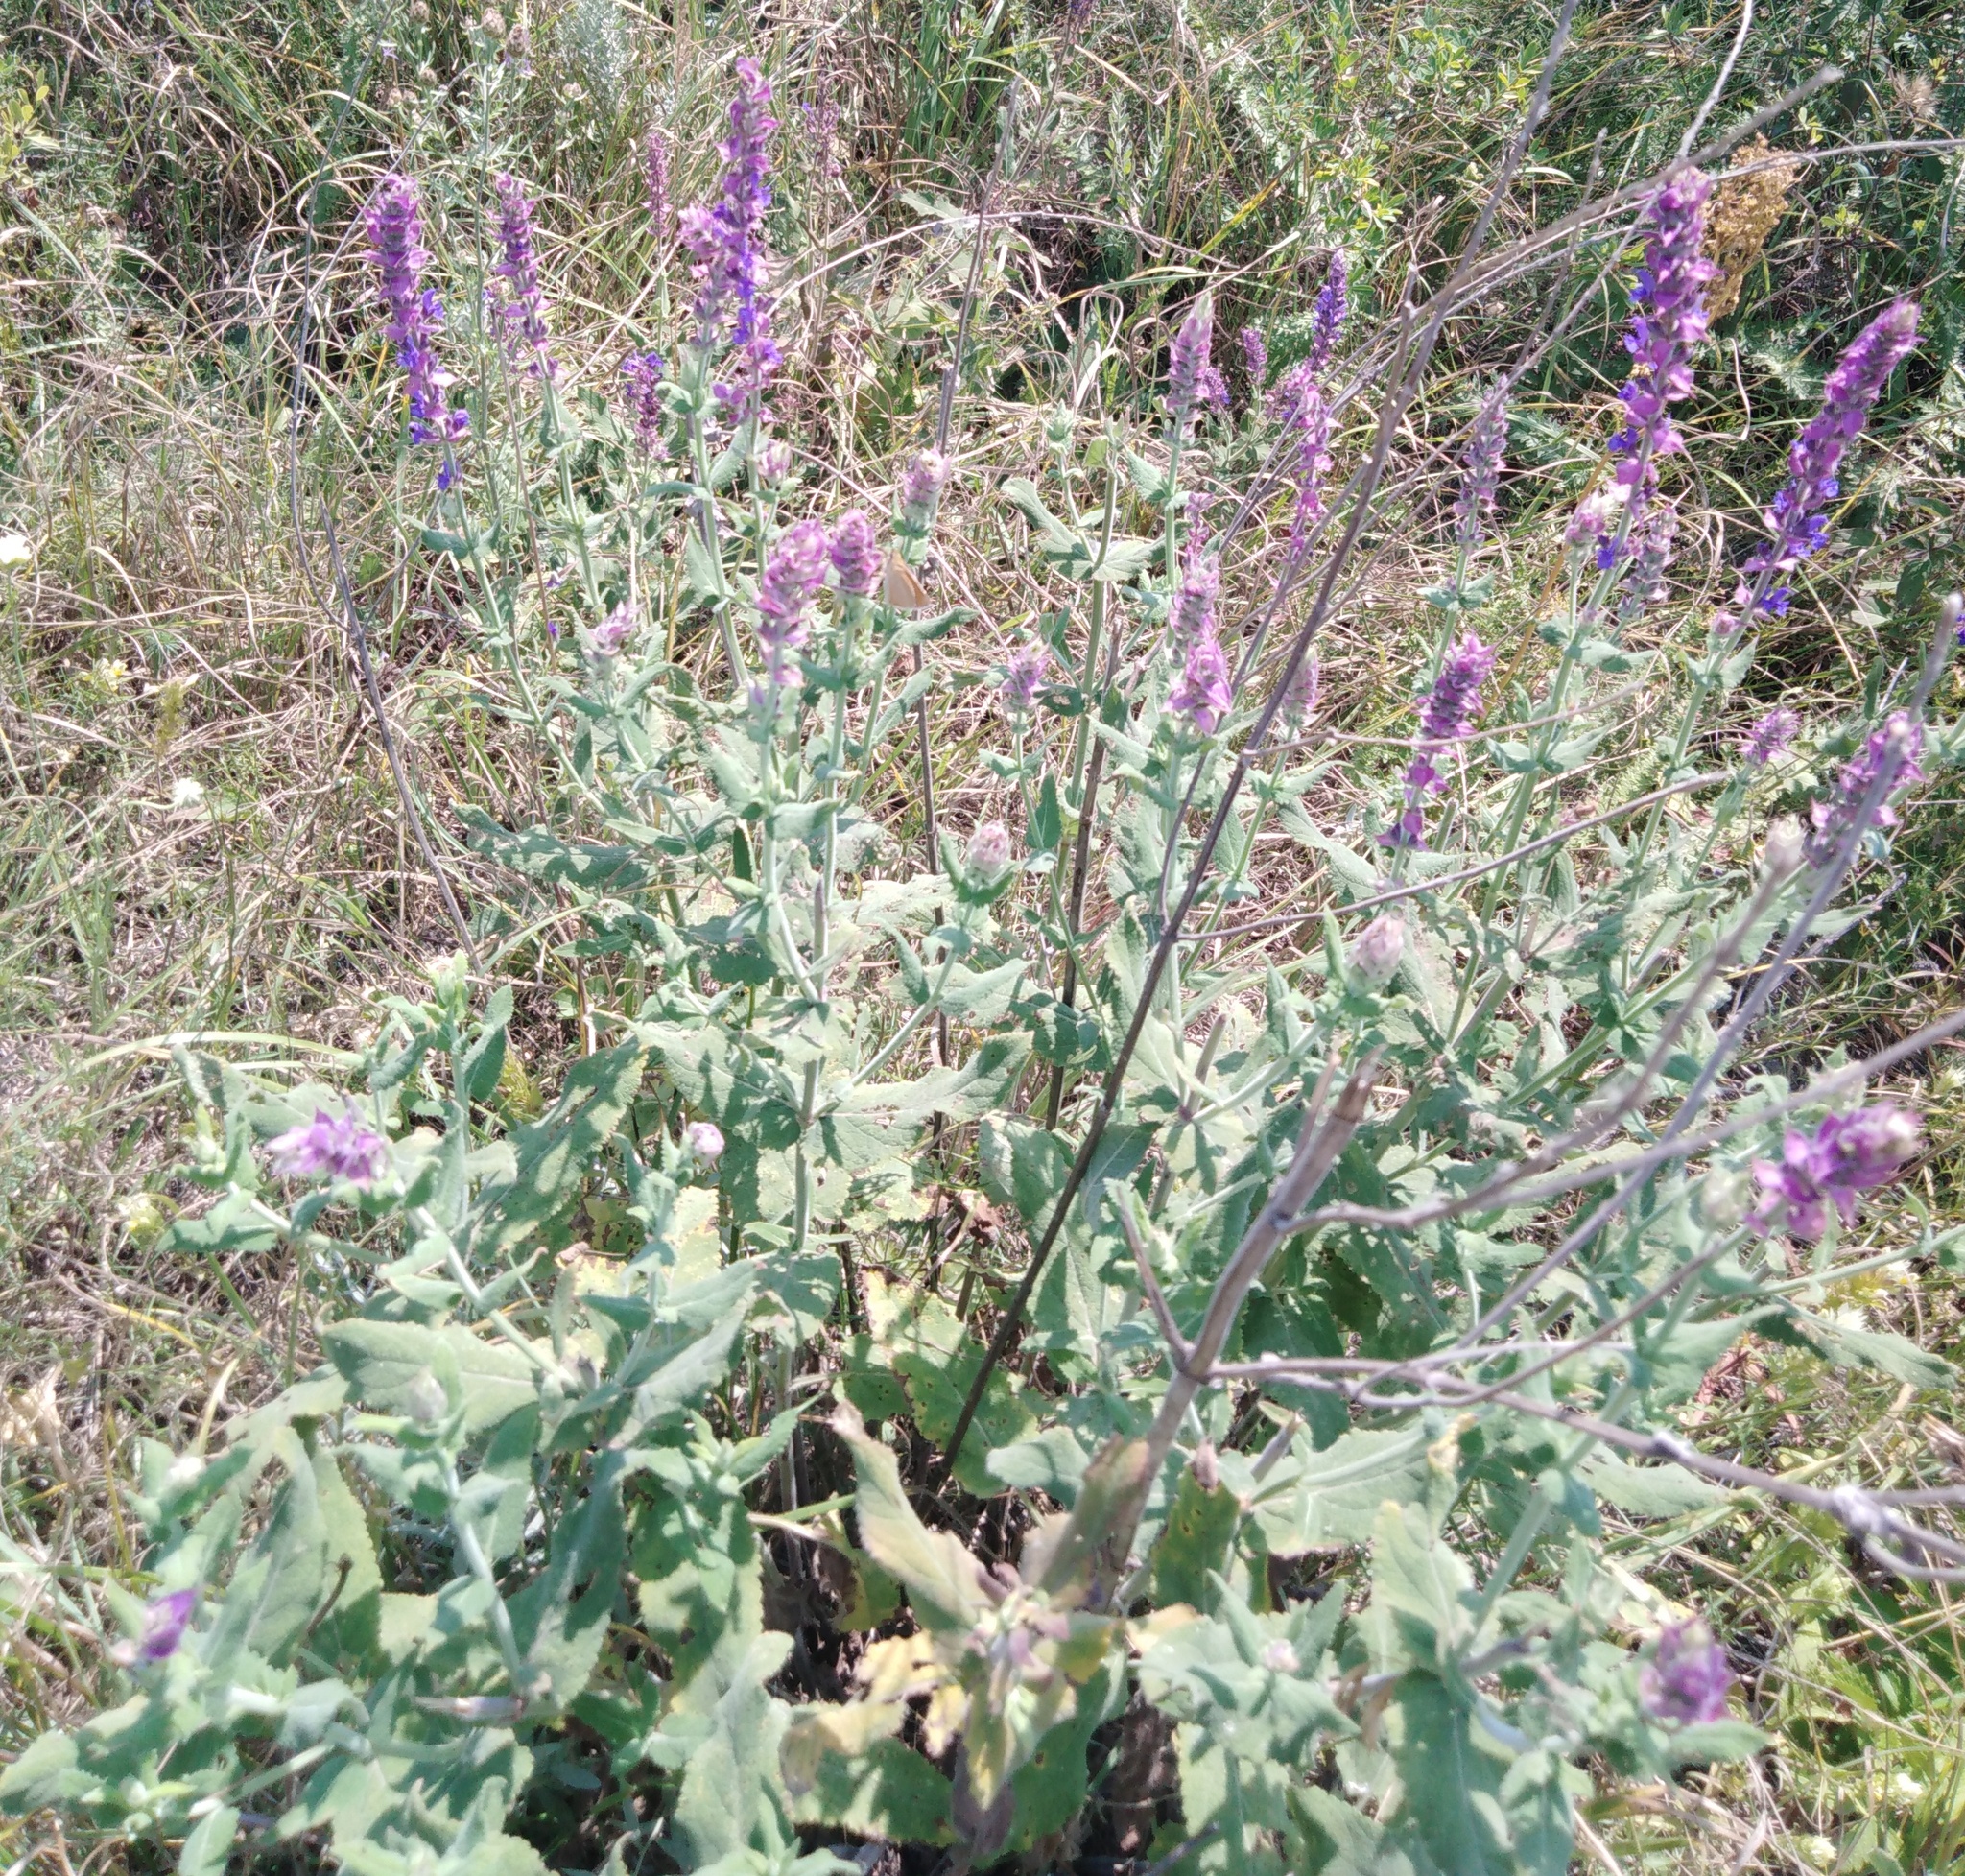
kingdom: Plantae
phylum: Tracheophyta
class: Magnoliopsida
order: Lamiales
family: Lamiaceae
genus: Salvia
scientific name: Salvia nemorosa
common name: Balkan clary
